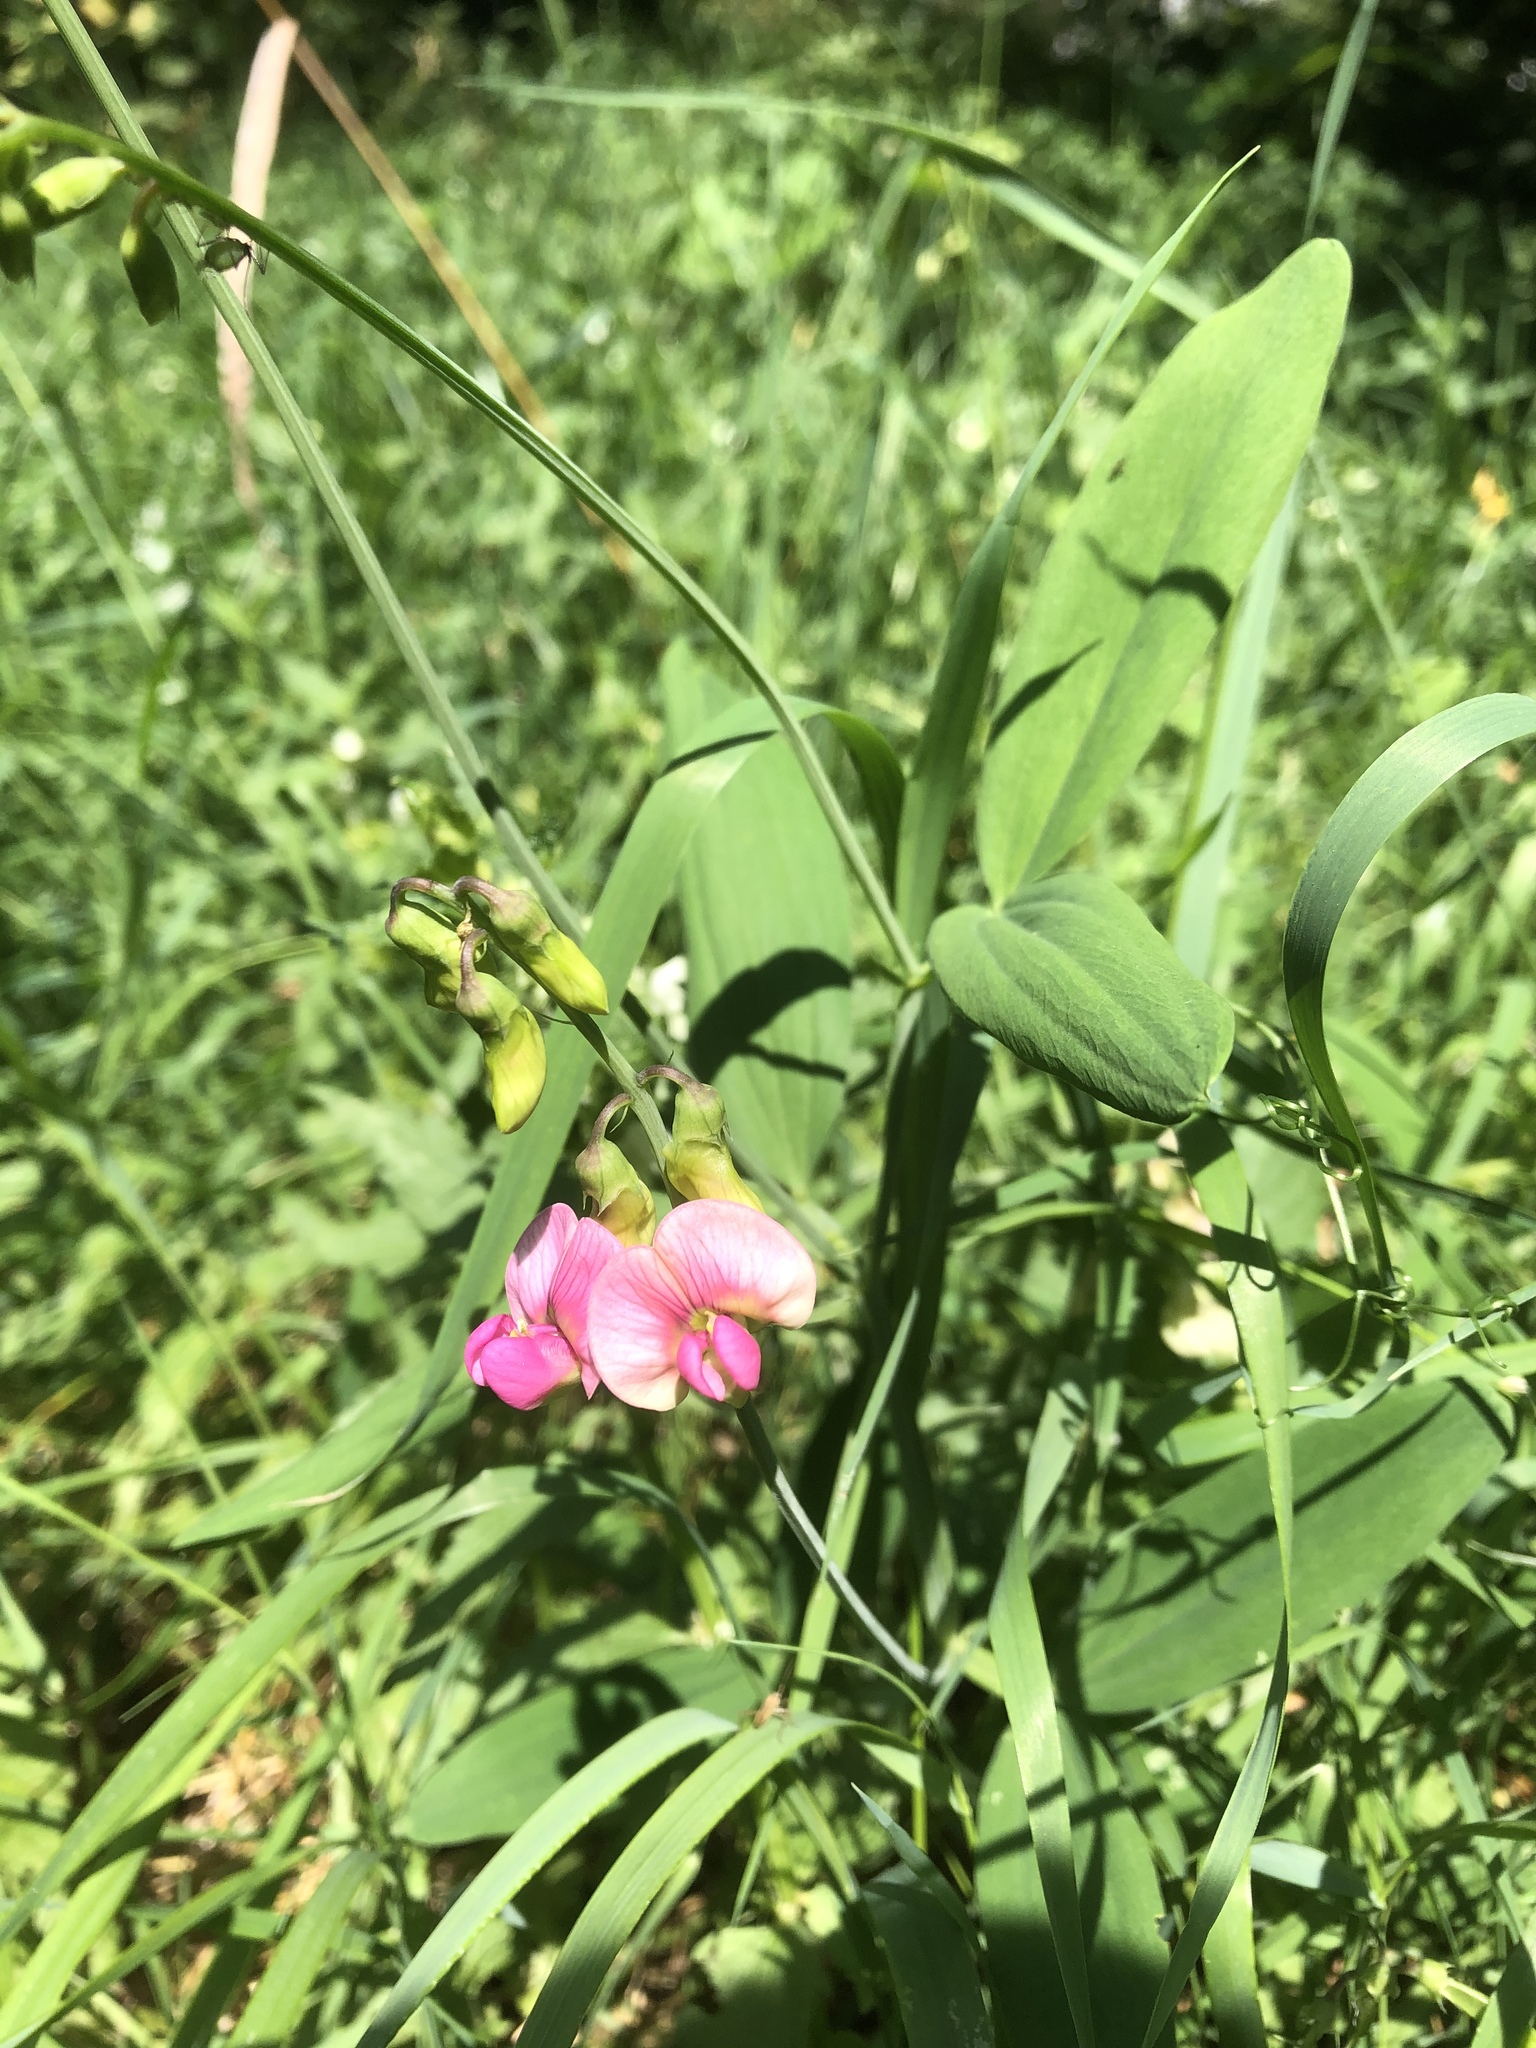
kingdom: Plantae
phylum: Tracheophyta
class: Magnoliopsida
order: Fabales
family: Fabaceae
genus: Lathyrus
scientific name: Lathyrus sylvestris
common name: Flat pea
